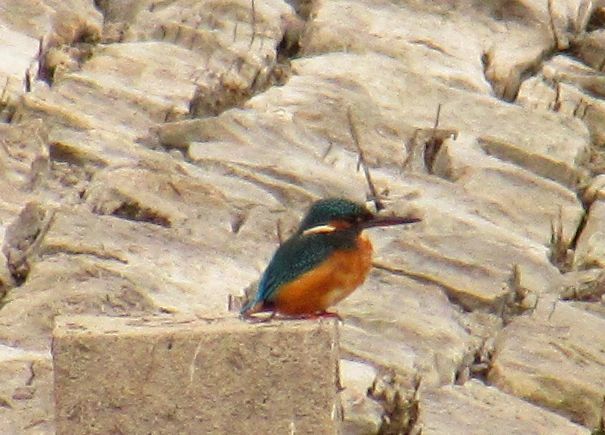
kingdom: Animalia
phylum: Chordata
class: Aves
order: Coraciiformes
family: Alcedinidae
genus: Alcedo
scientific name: Alcedo atthis
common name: Common kingfisher
